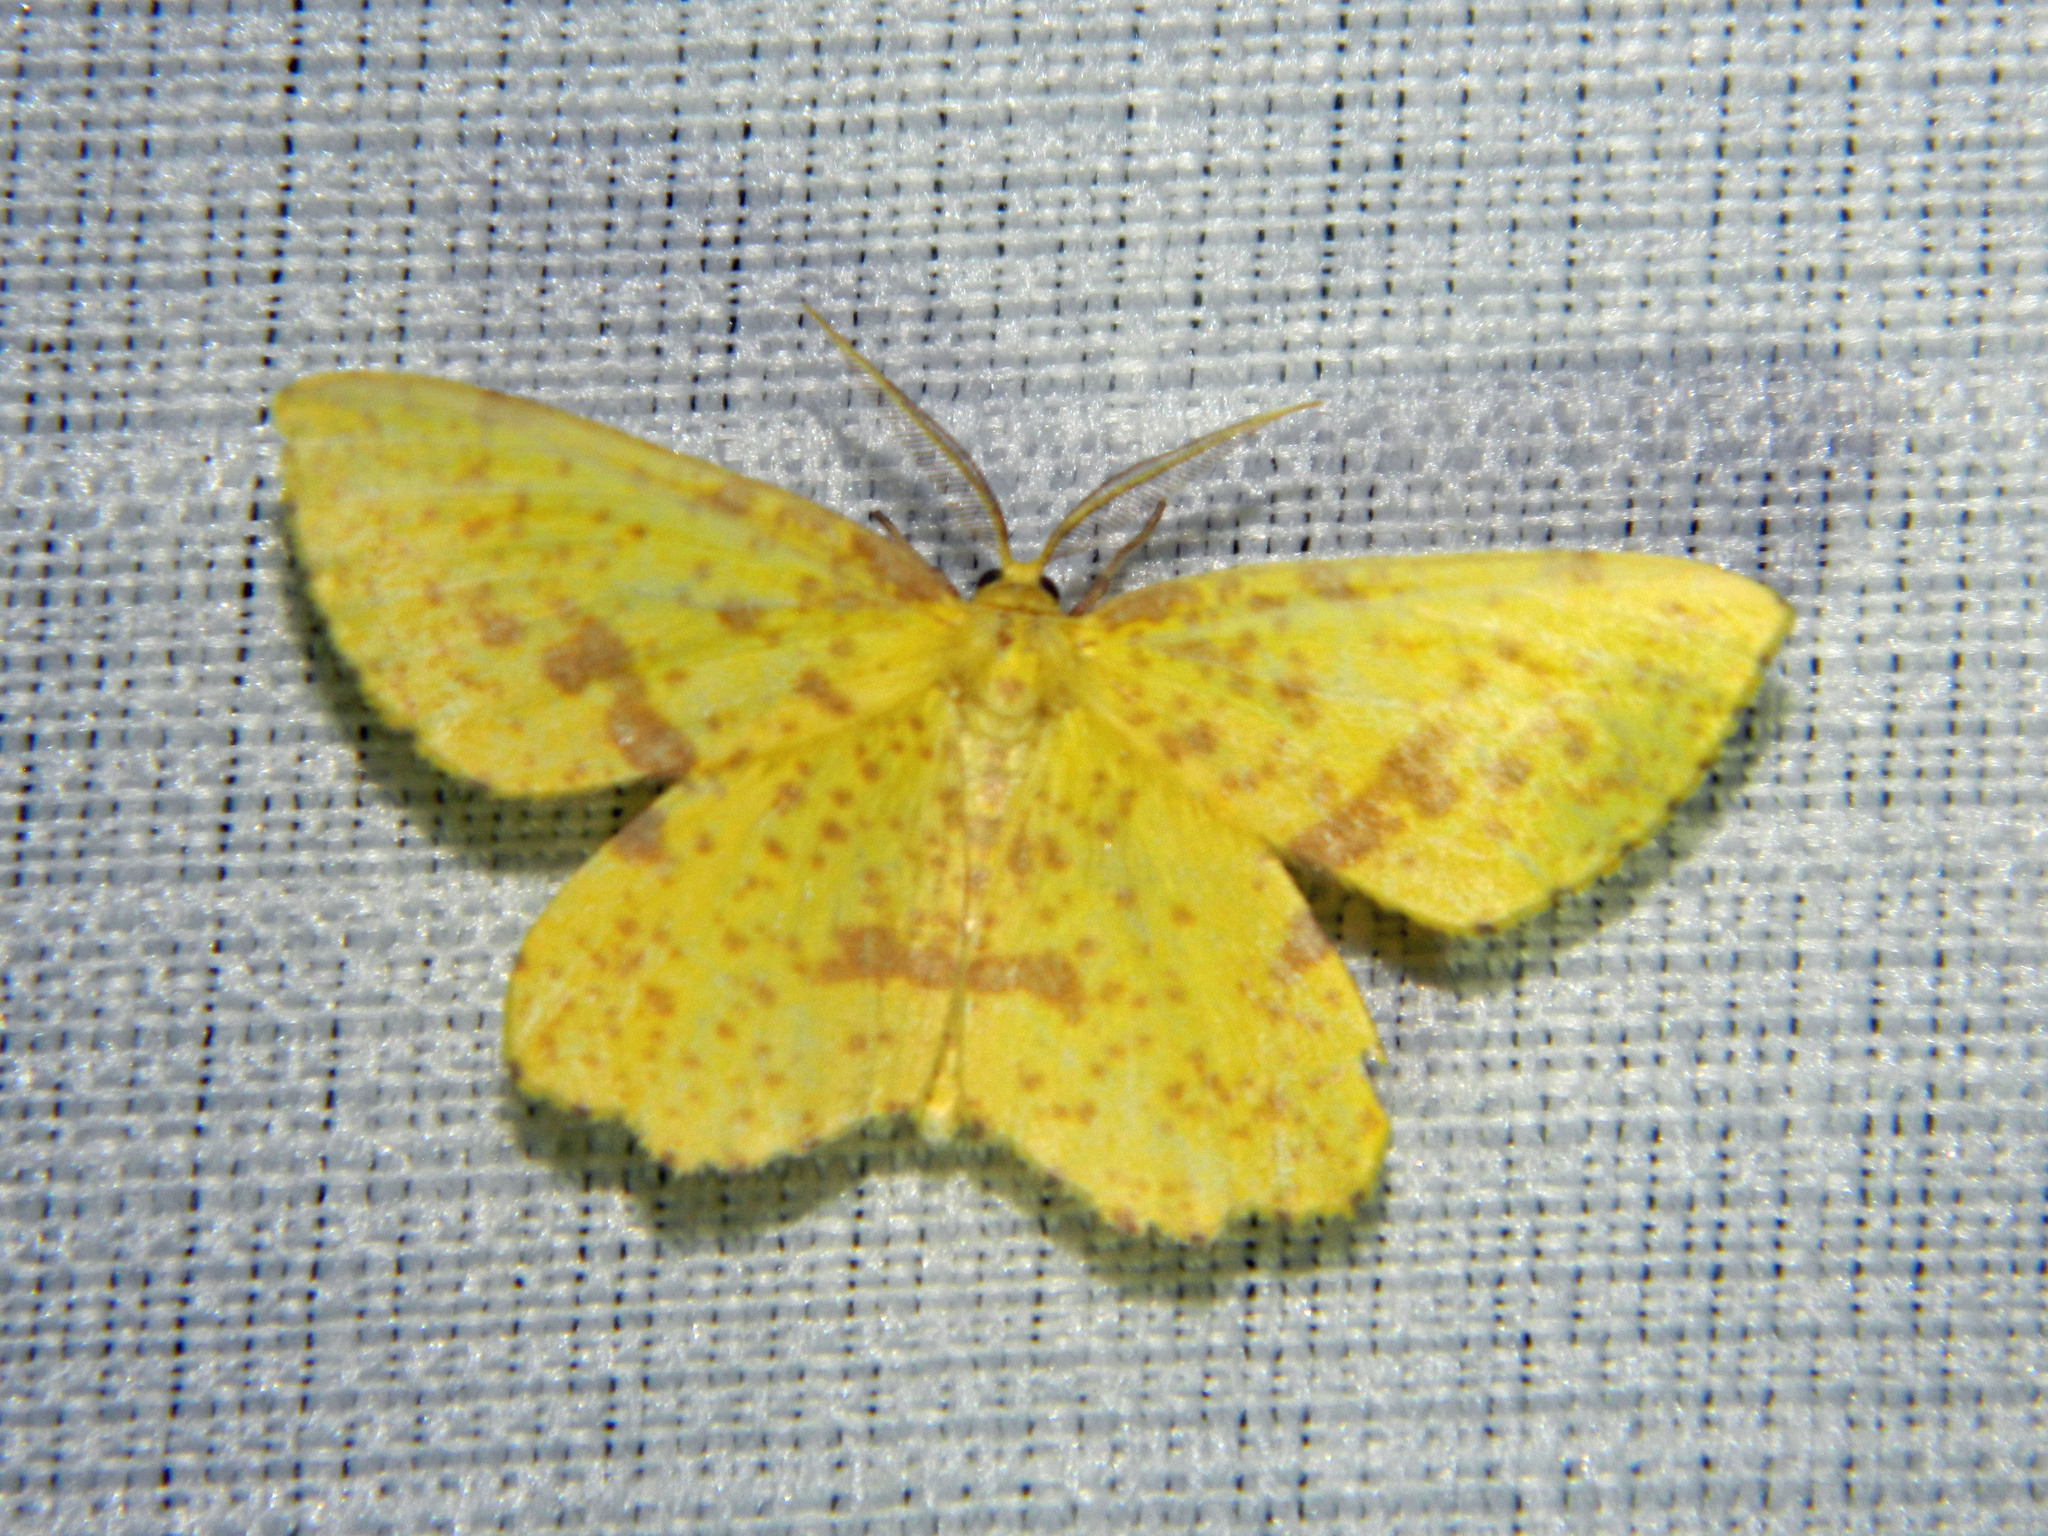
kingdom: Animalia
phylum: Arthropoda
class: Insecta
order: Lepidoptera
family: Geometridae
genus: Xanthotype
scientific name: Xanthotype
